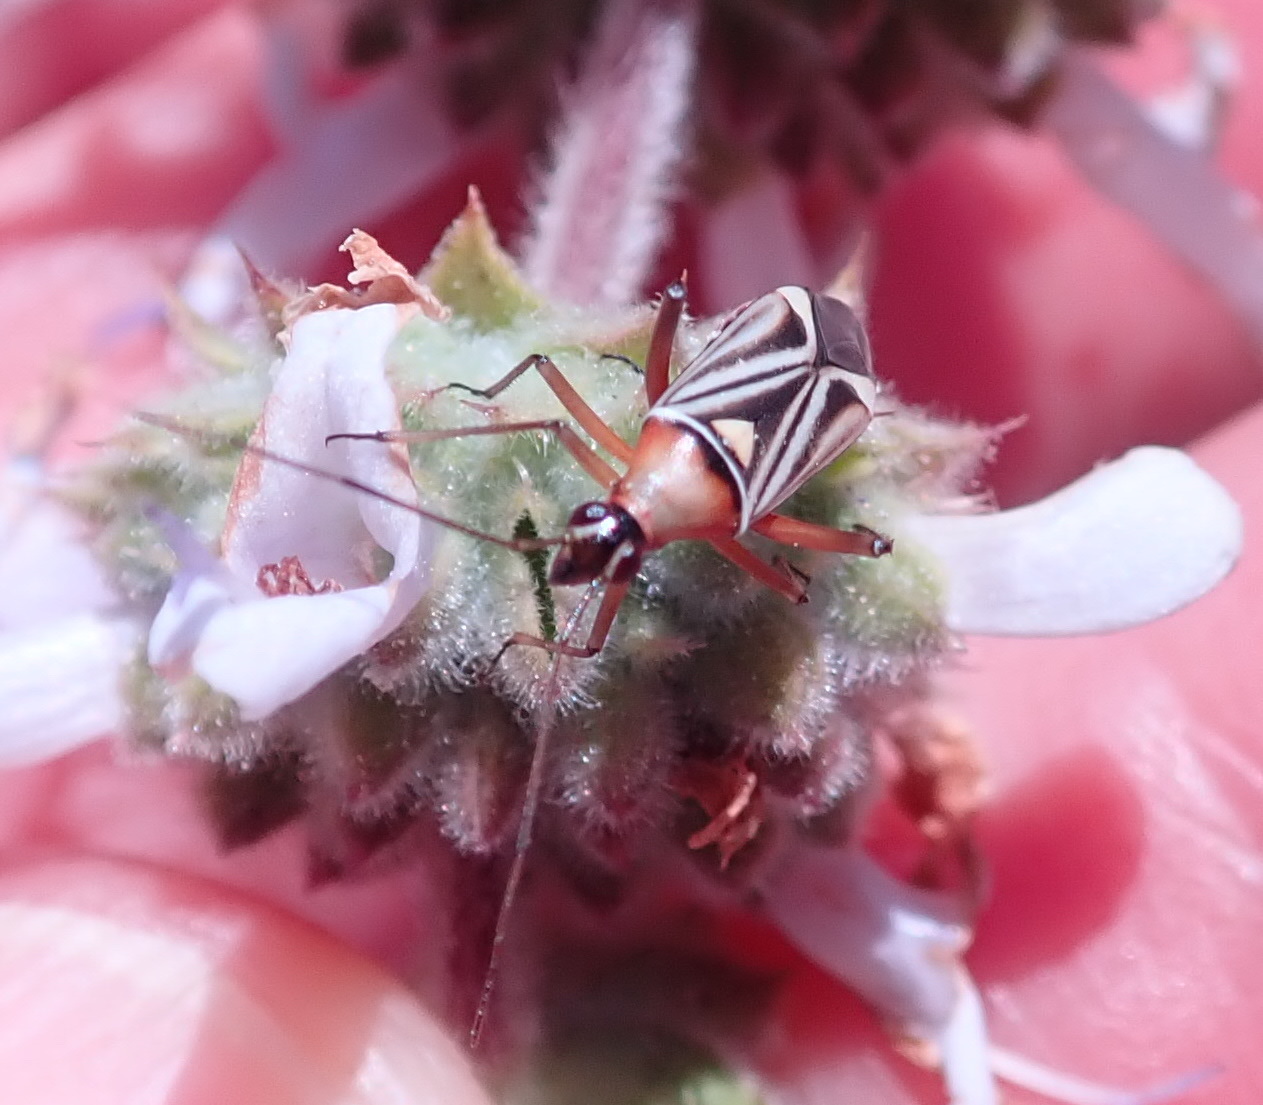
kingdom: Animalia
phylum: Arthropoda
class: Insecta
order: Hemiptera
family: Miridae
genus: Closterocoris
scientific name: Closterocoris amoenus
